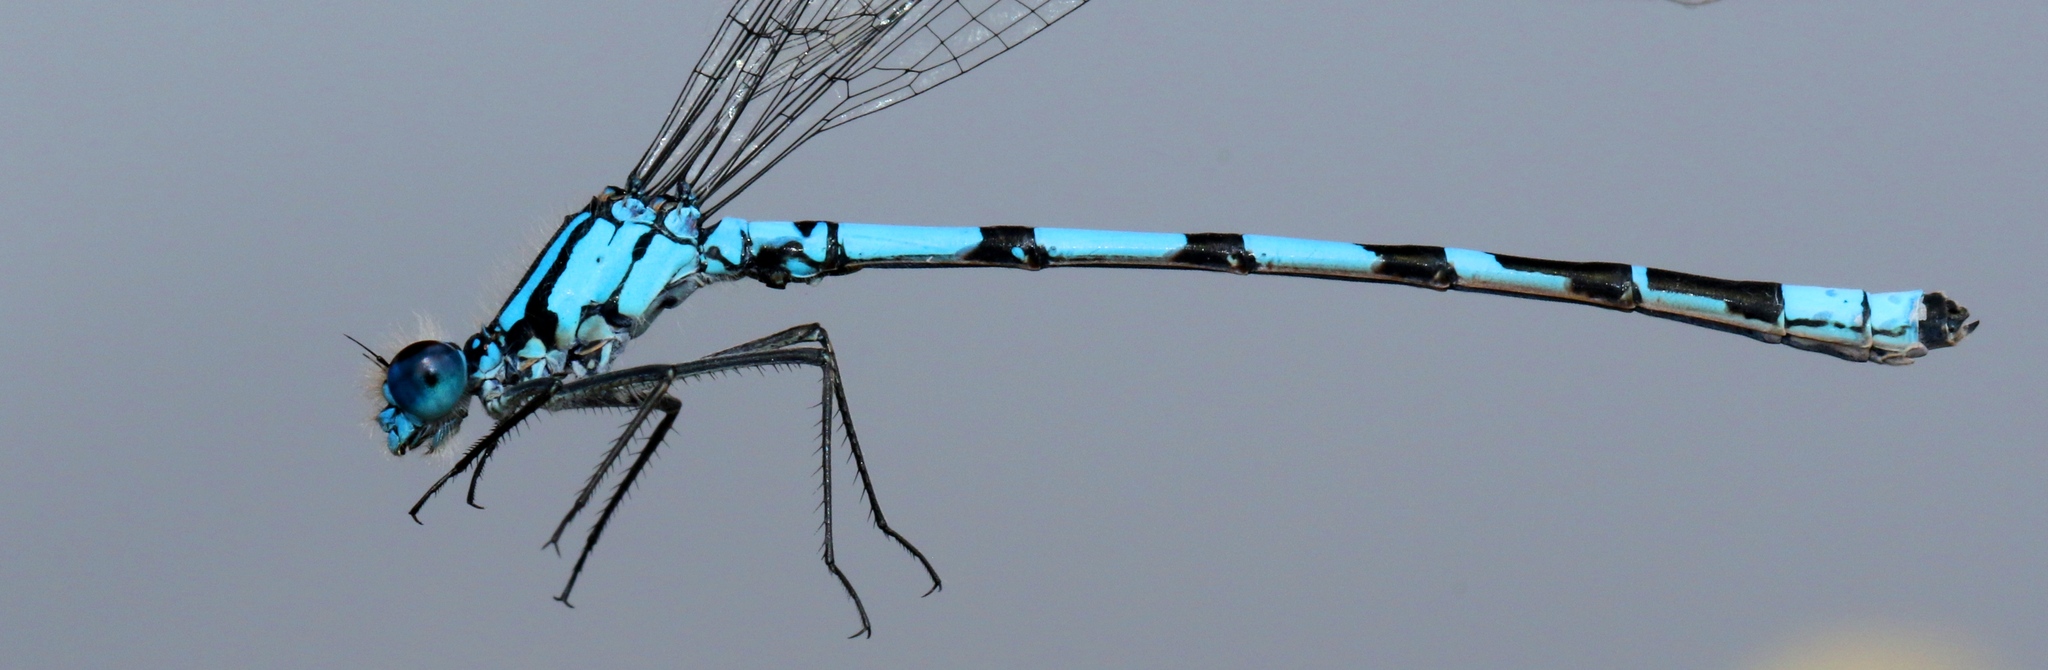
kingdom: Animalia
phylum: Arthropoda
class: Insecta
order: Odonata
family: Coenagrionidae
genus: Coenagrion
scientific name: Coenagrion interrogatum
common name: Subarctic bluet
